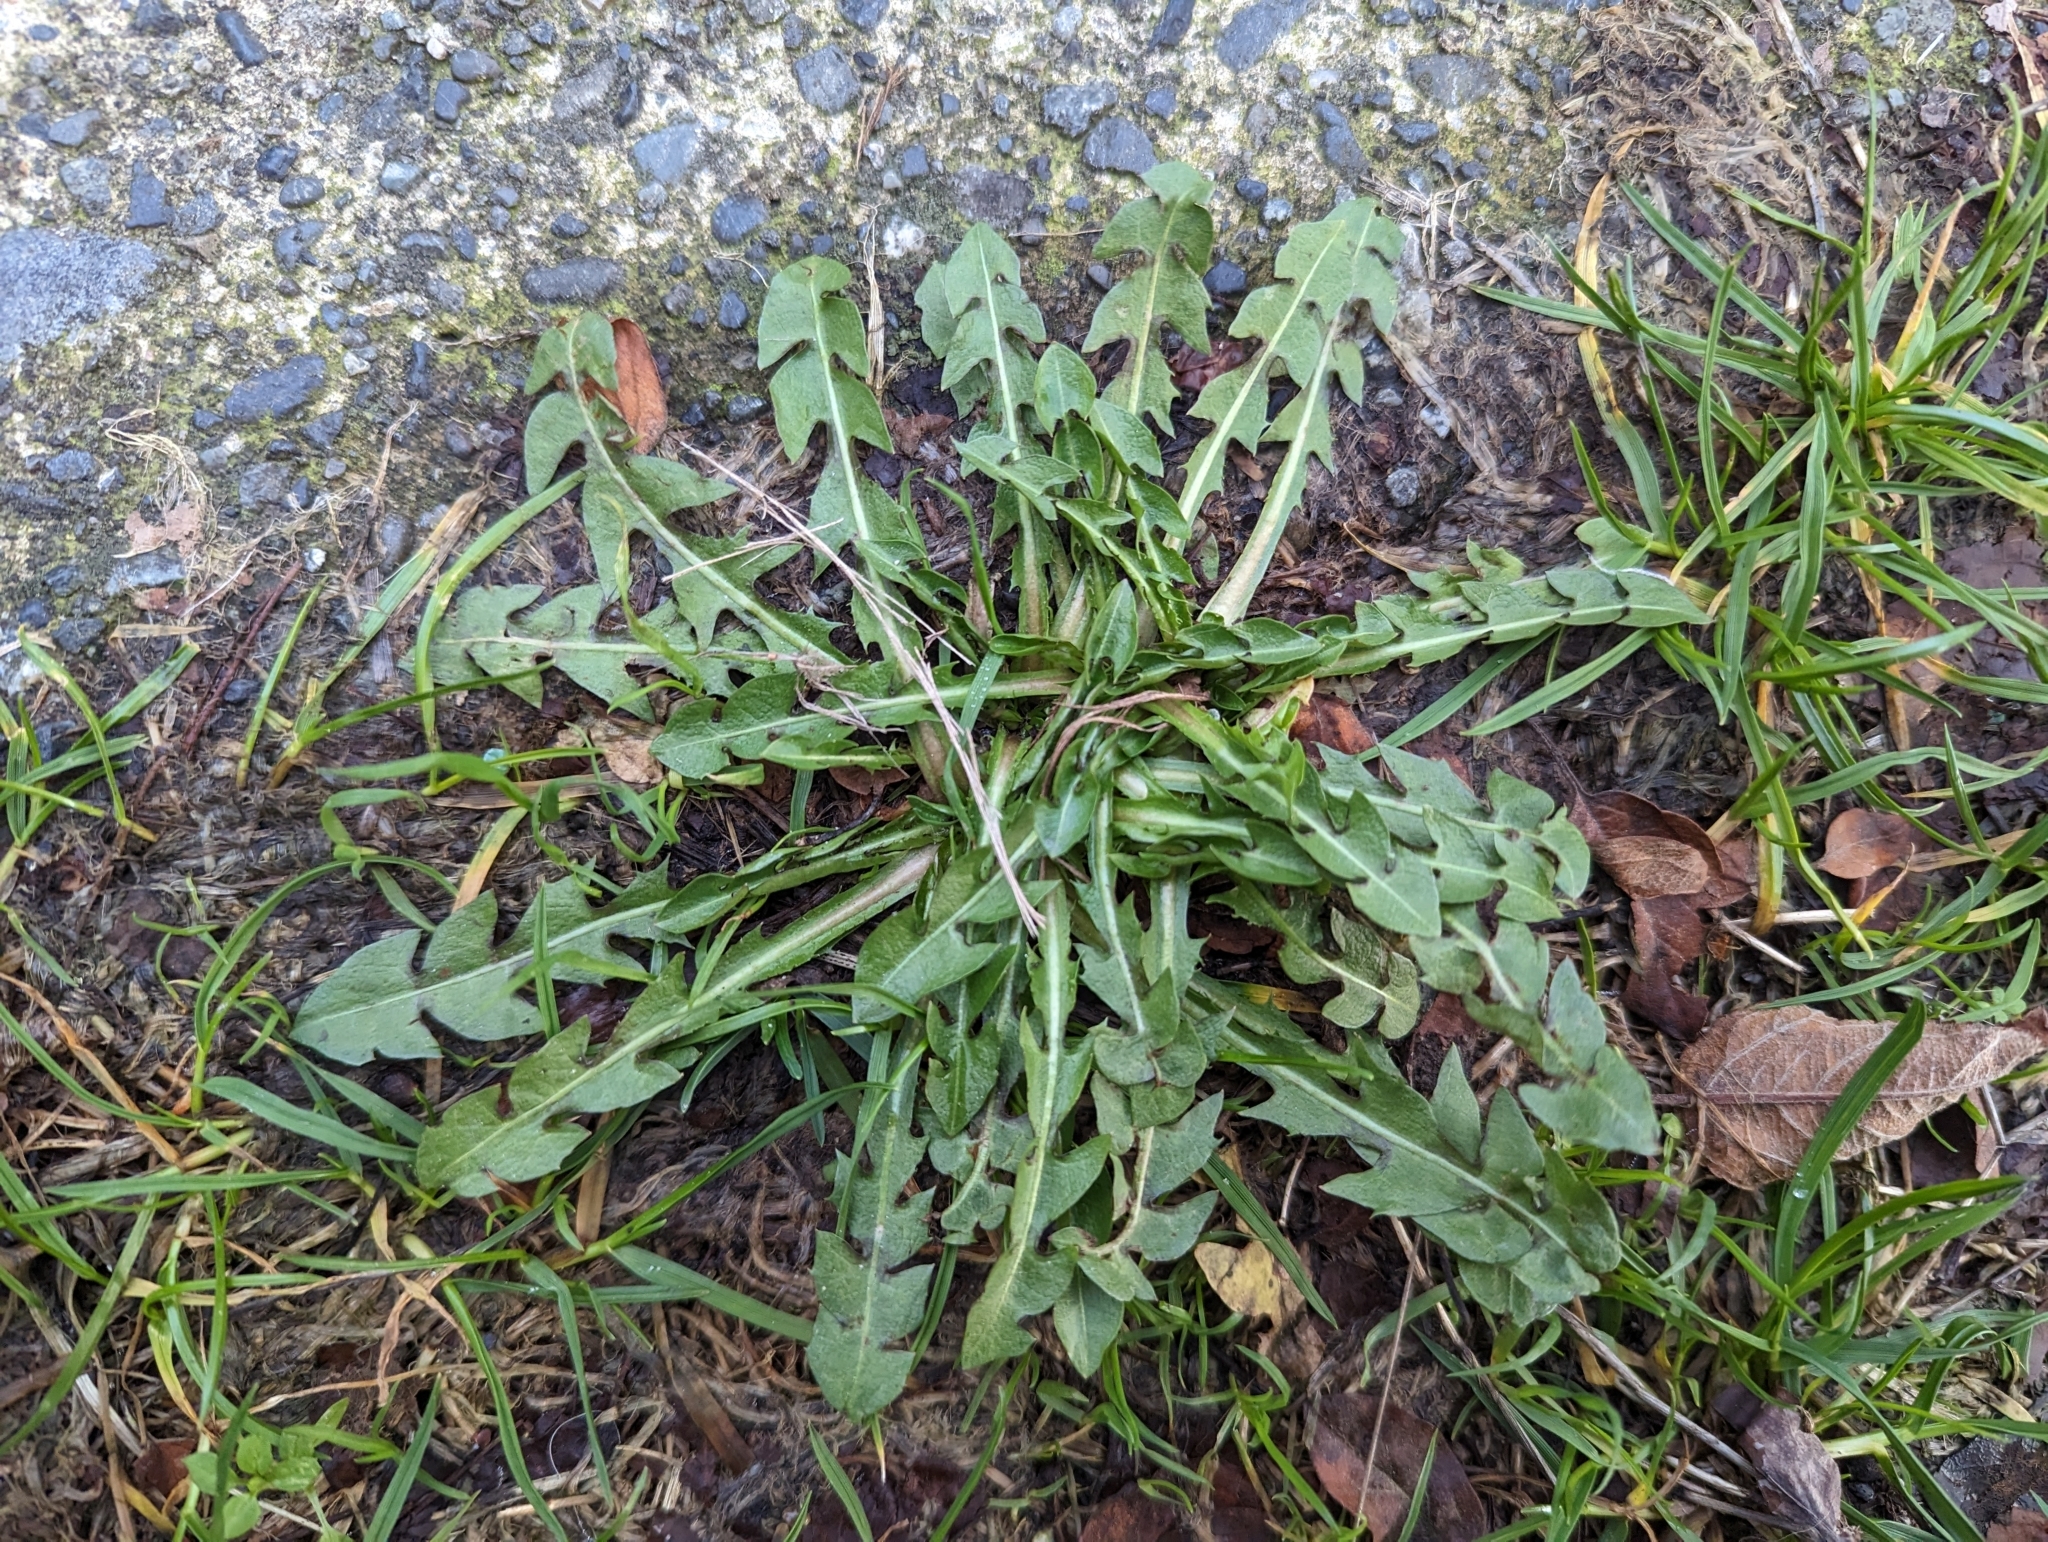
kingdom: Plantae
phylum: Tracheophyta
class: Magnoliopsida
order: Asterales
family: Asteraceae
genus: Taraxacum
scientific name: Taraxacum officinale
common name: Common dandelion
